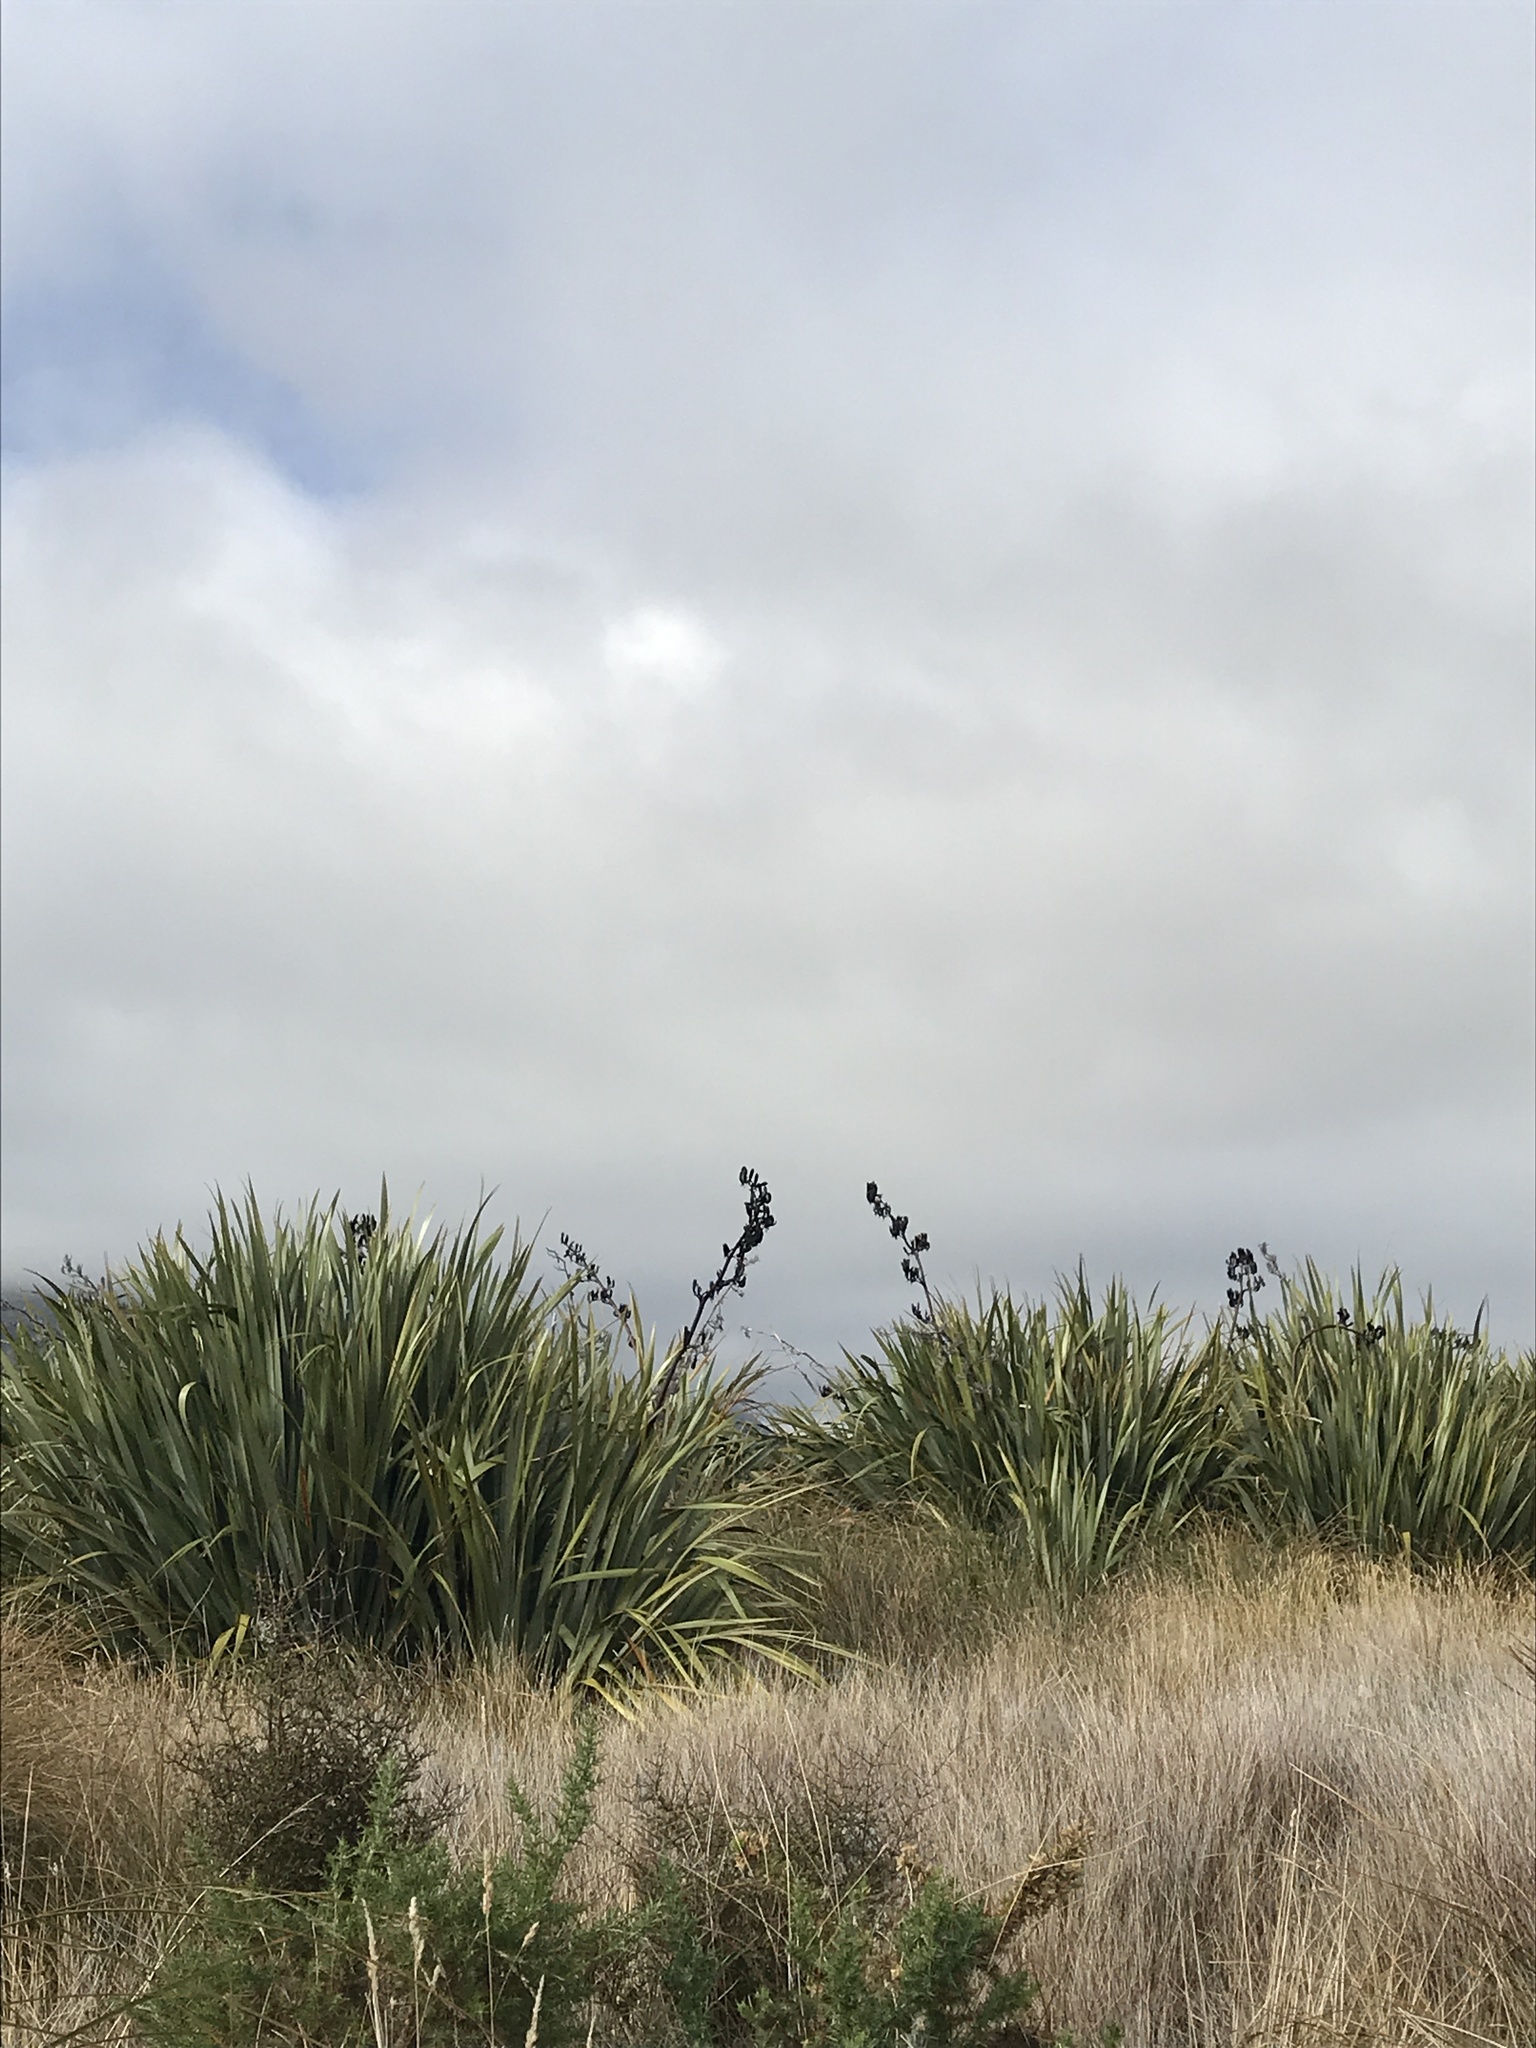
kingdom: Plantae
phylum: Tracheophyta
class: Liliopsida
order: Asparagales
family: Asphodelaceae
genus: Phormium
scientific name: Phormium tenax
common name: New zealand flax
